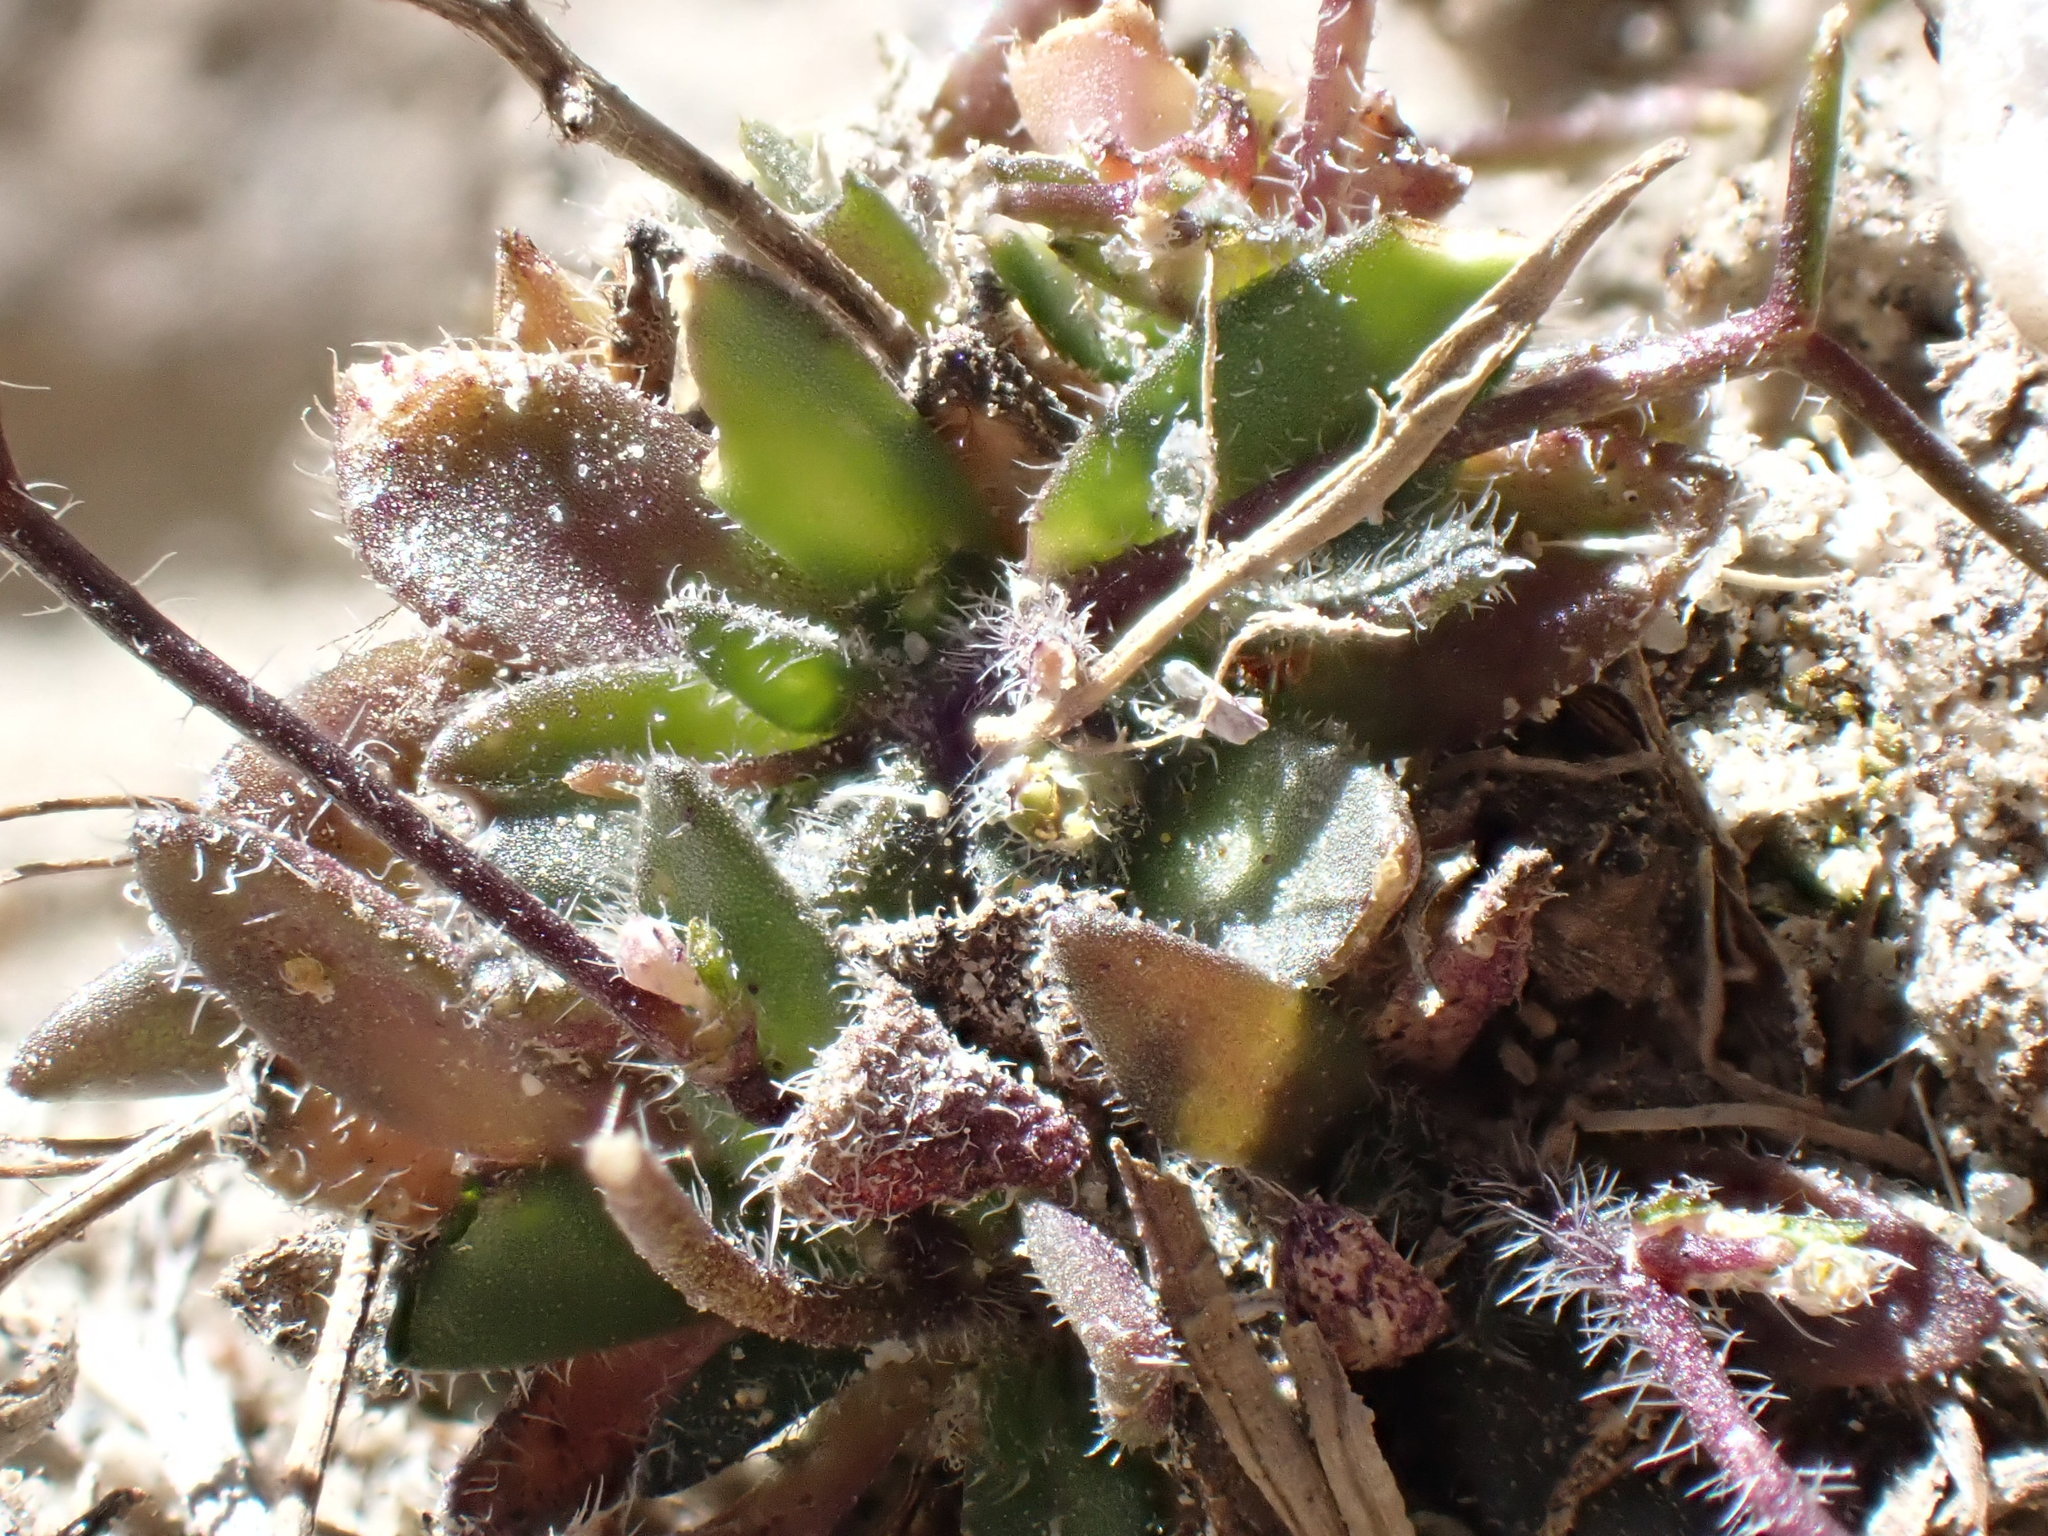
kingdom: Plantae
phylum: Tracheophyta
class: Magnoliopsida
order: Brassicales
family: Brassicaceae
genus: Draba
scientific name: Draba albertina
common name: Slender draba
